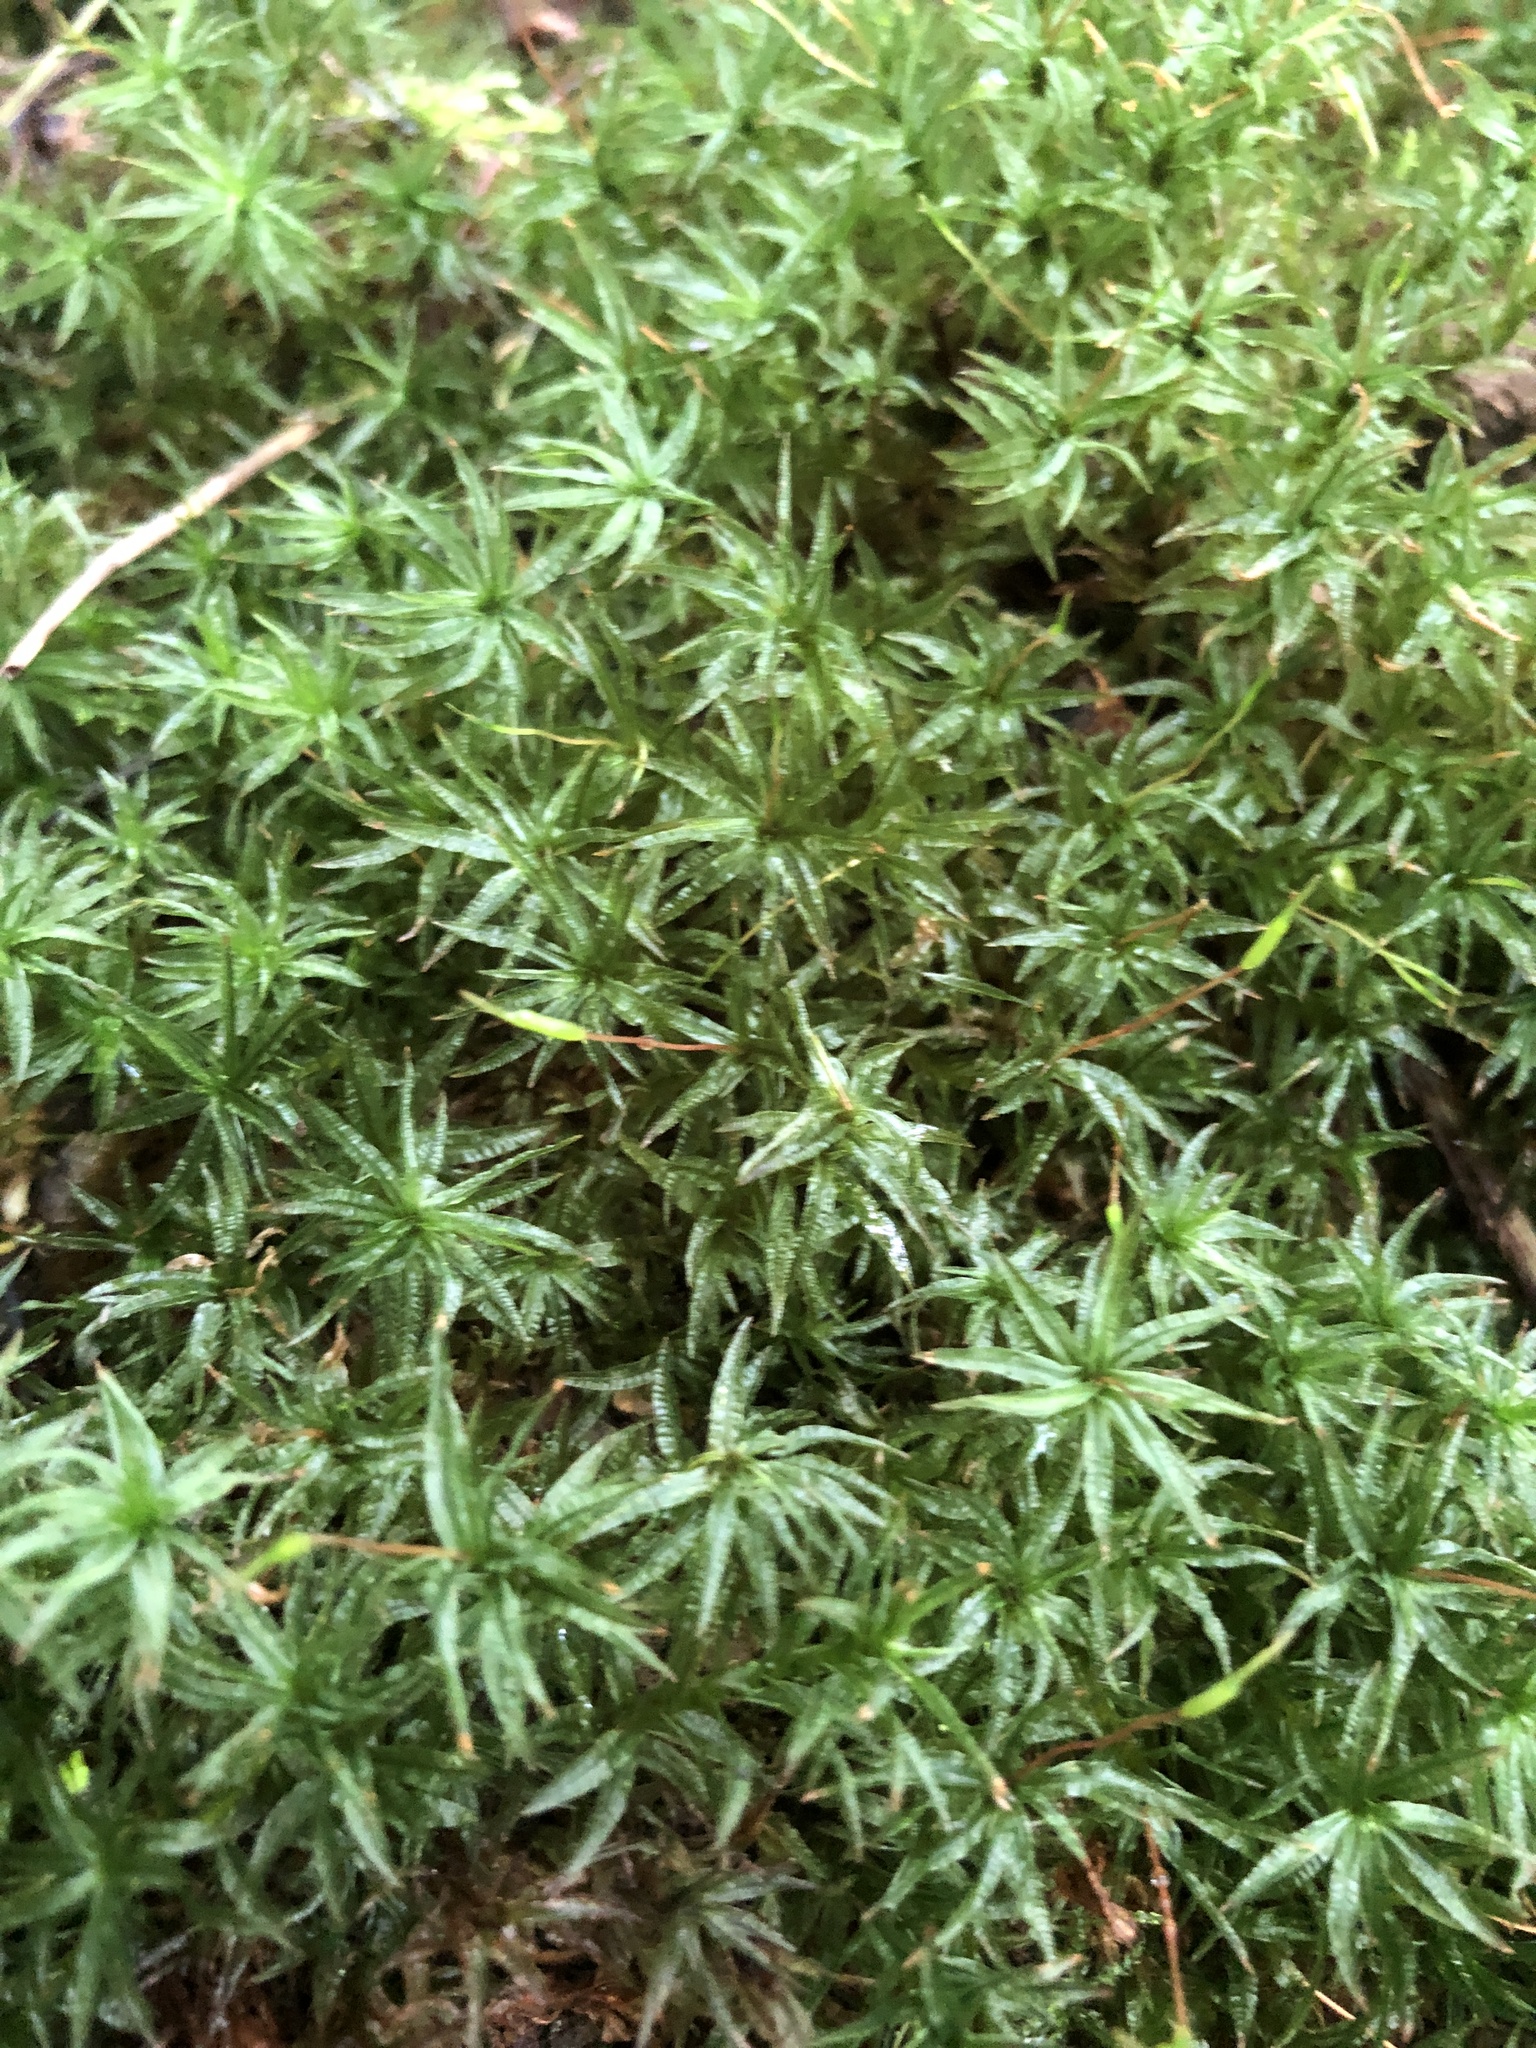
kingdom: Plantae
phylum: Bryophyta
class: Polytrichopsida
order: Polytrichales
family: Polytrichaceae
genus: Atrichum
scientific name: Atrichum undulatum
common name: Common smoothcap
